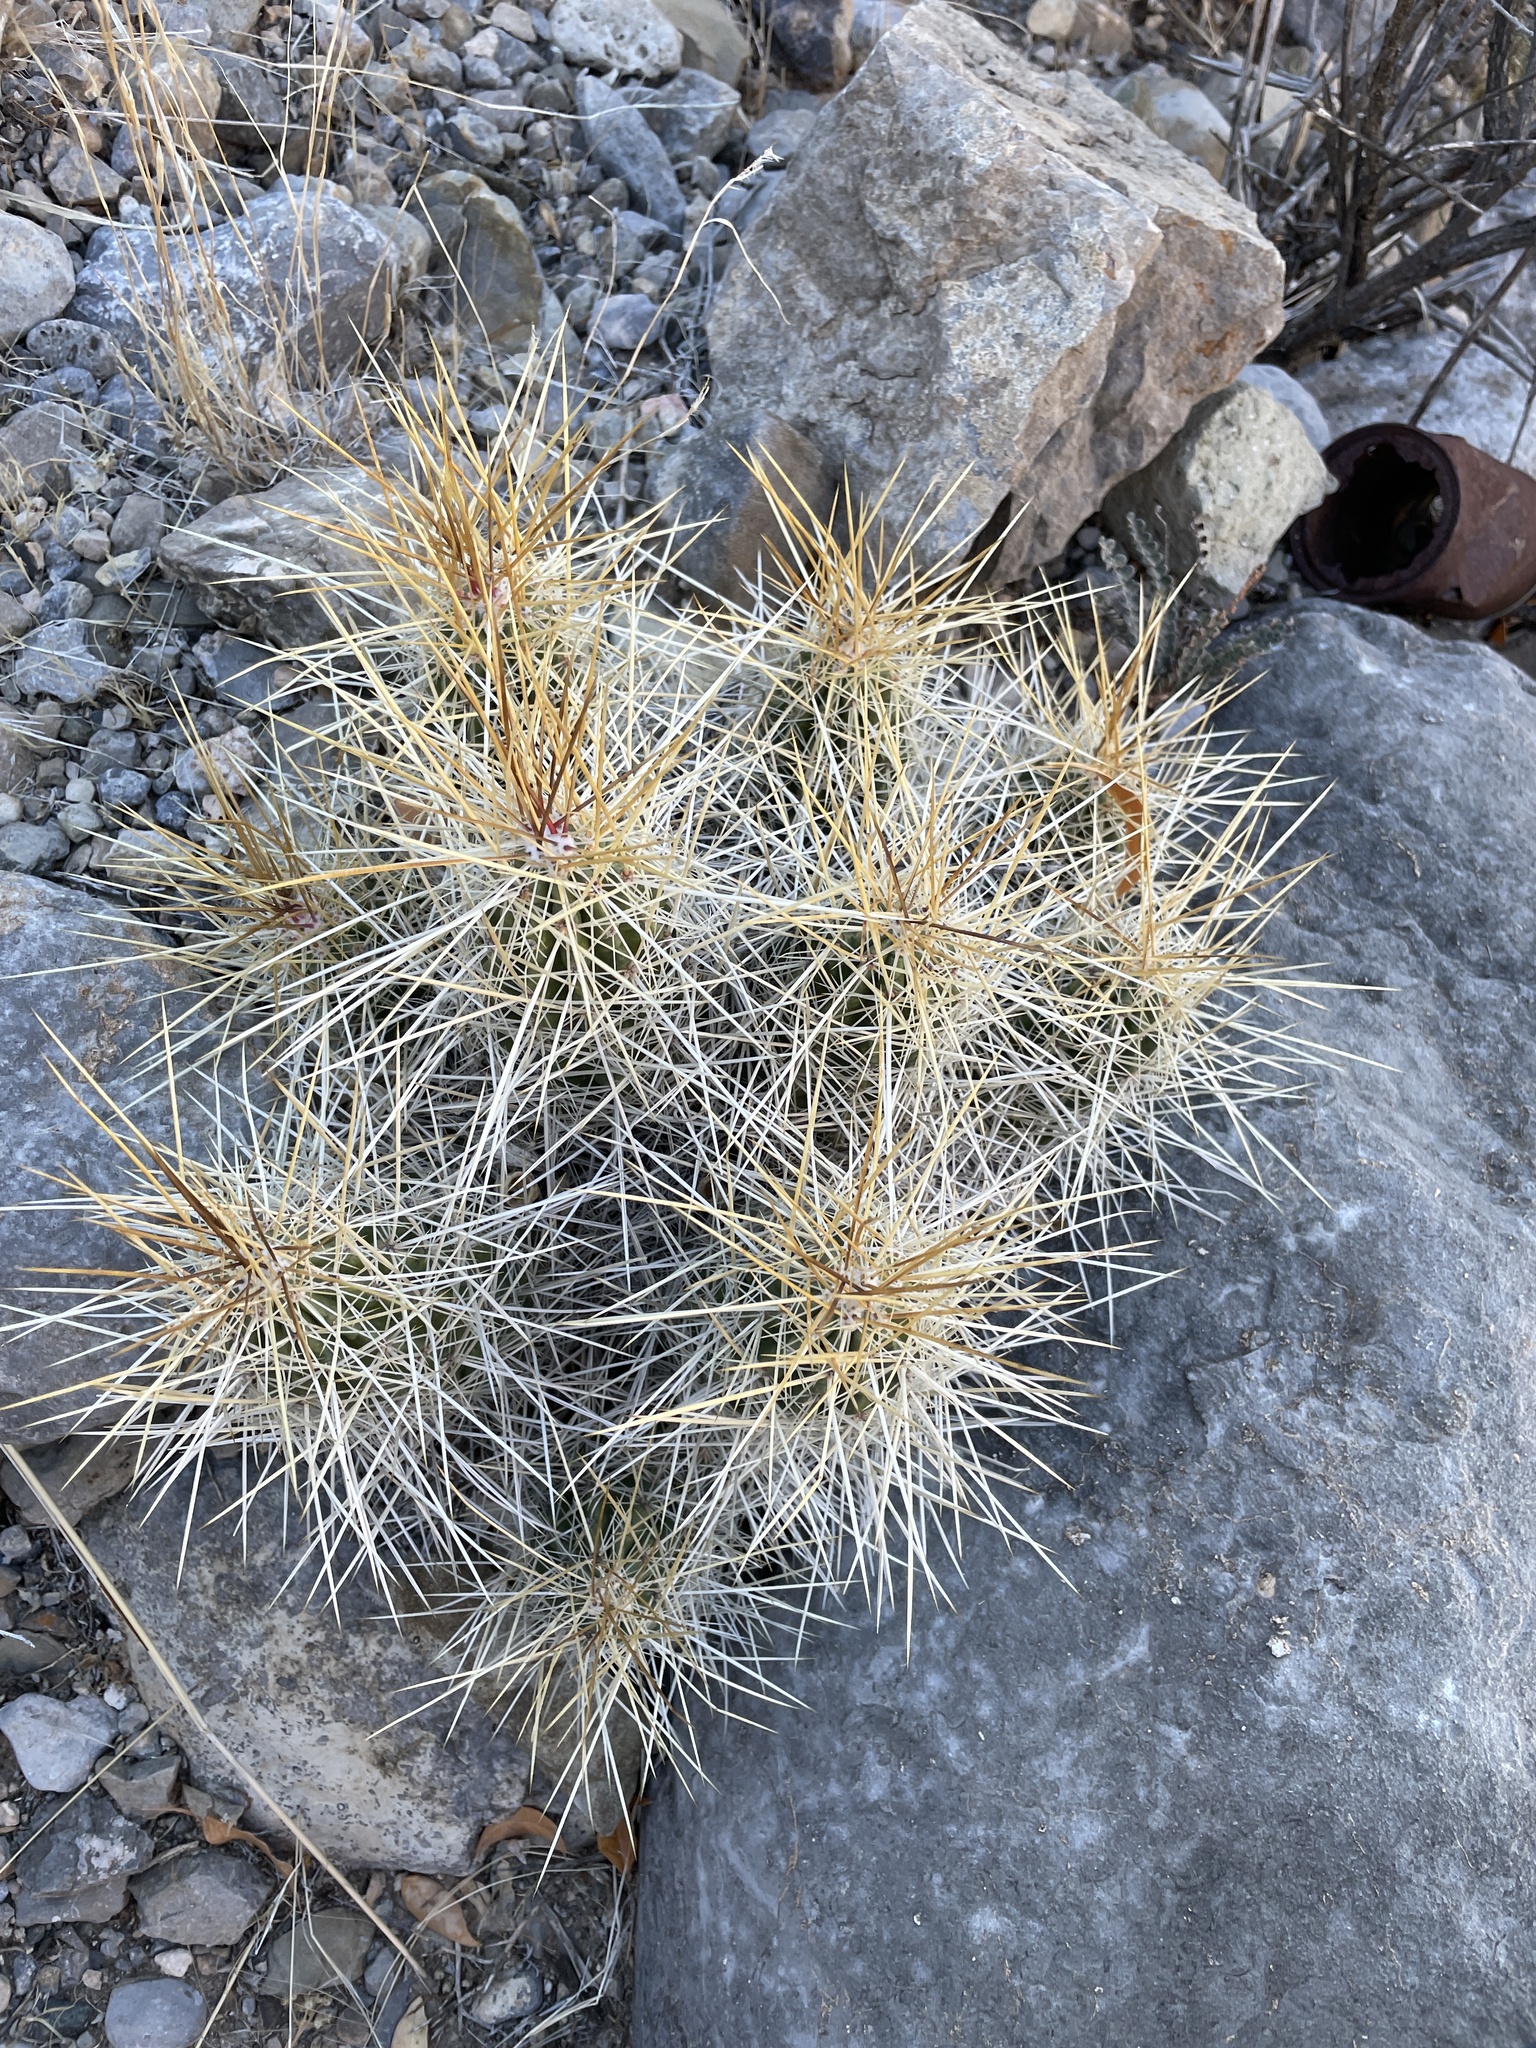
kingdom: Plantae
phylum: Tracheophyta
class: Magnoliopsida
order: Caryophyllales
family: Cactaceae
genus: Echinocereus
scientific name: Echinocereus stramineus
